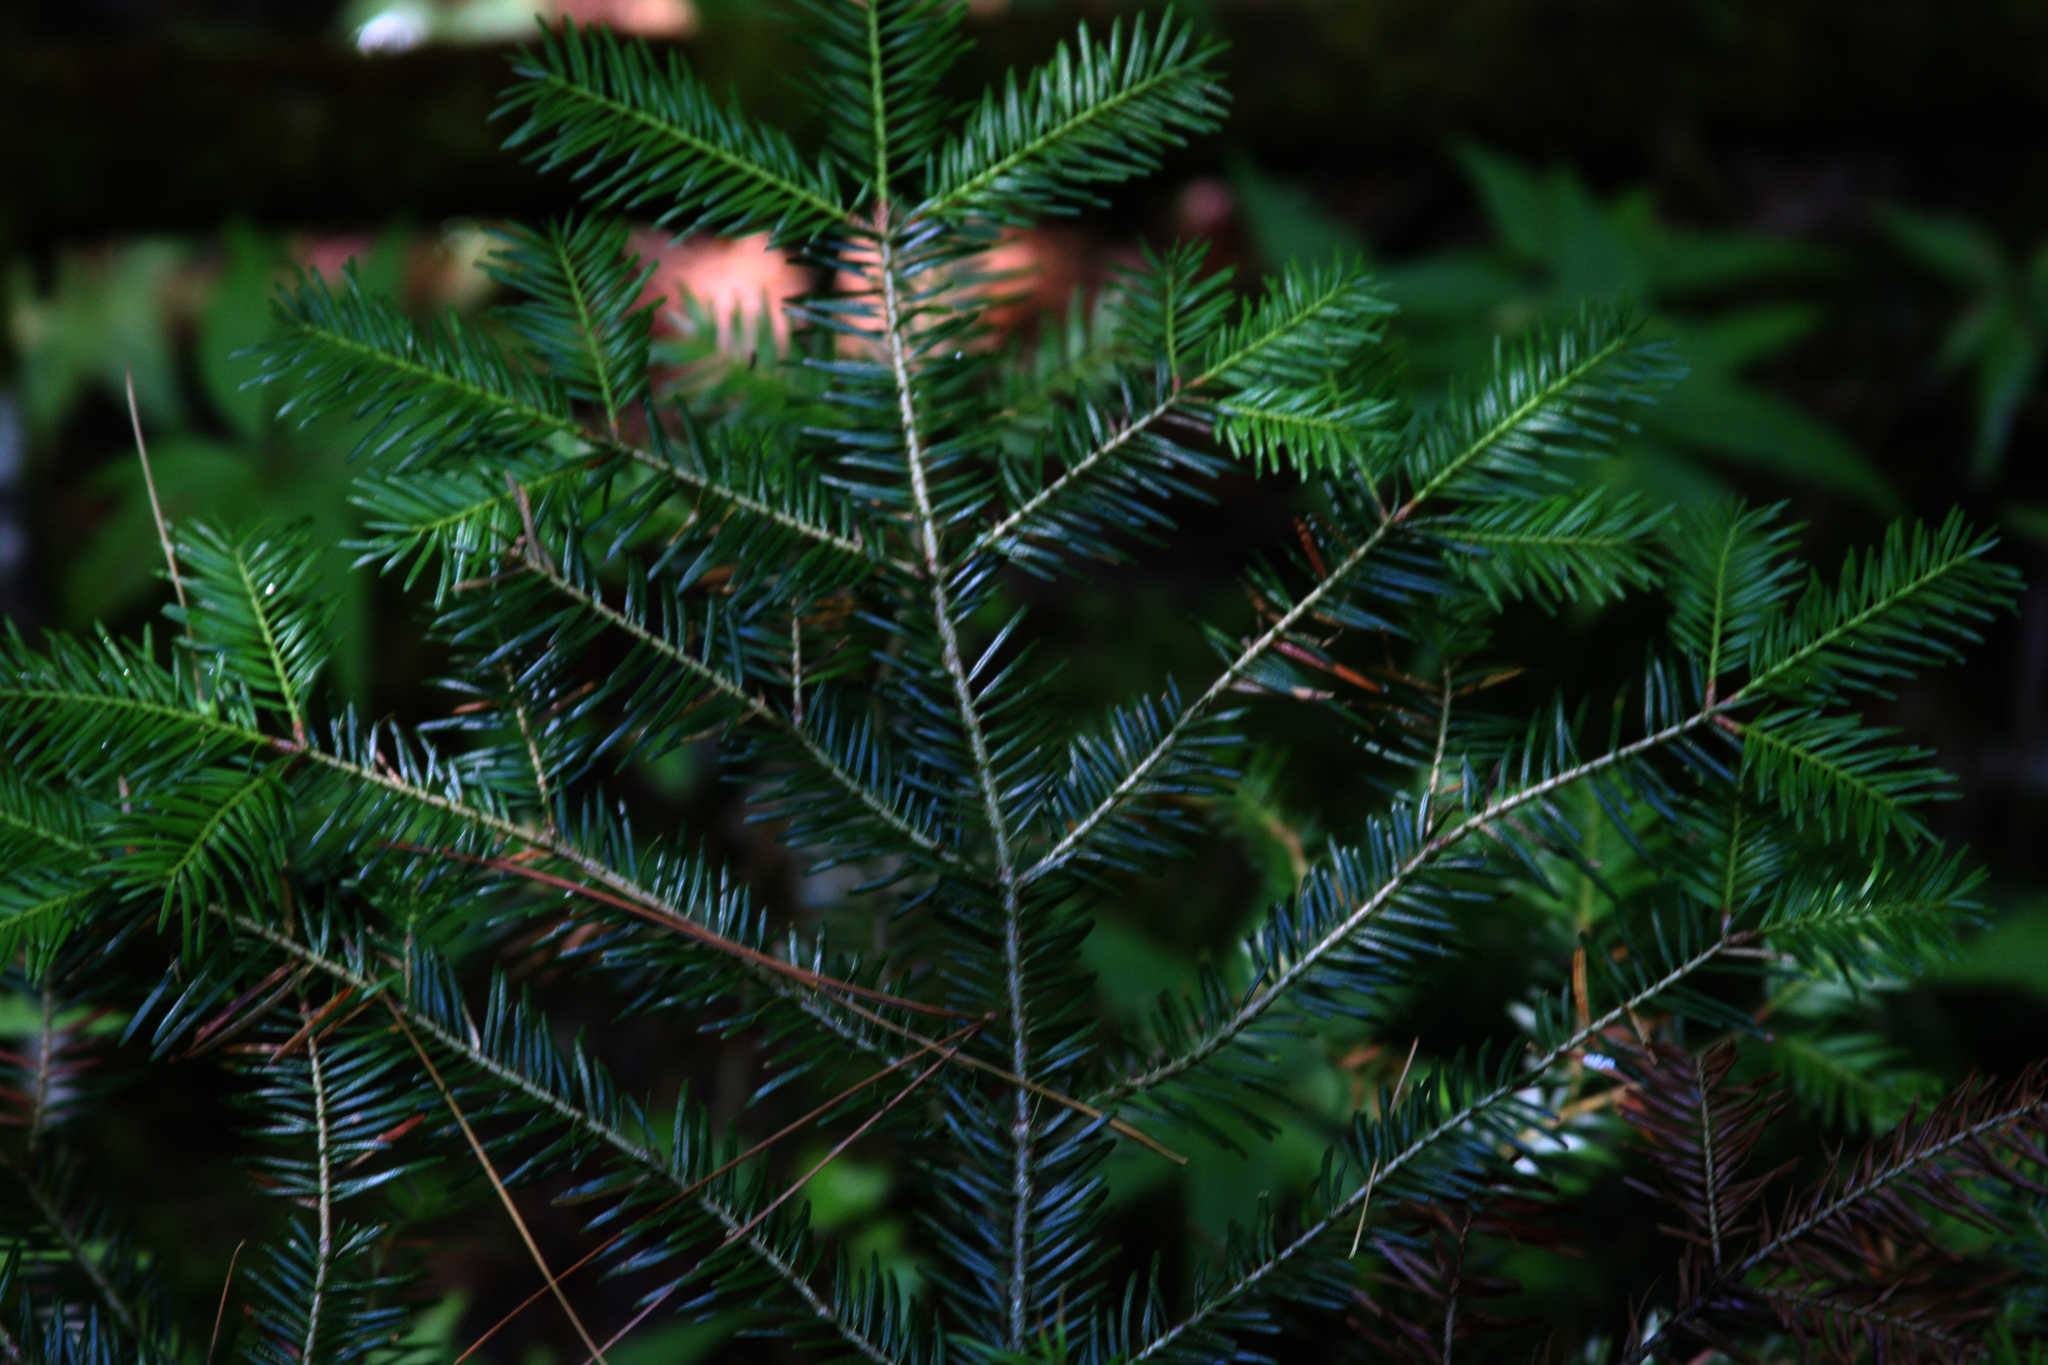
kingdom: Plantae
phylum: Tracheophyta
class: Pinopsida
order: Pinales
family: Pinaceae
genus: Abies
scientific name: Abies balsamea
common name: Balsam fir
